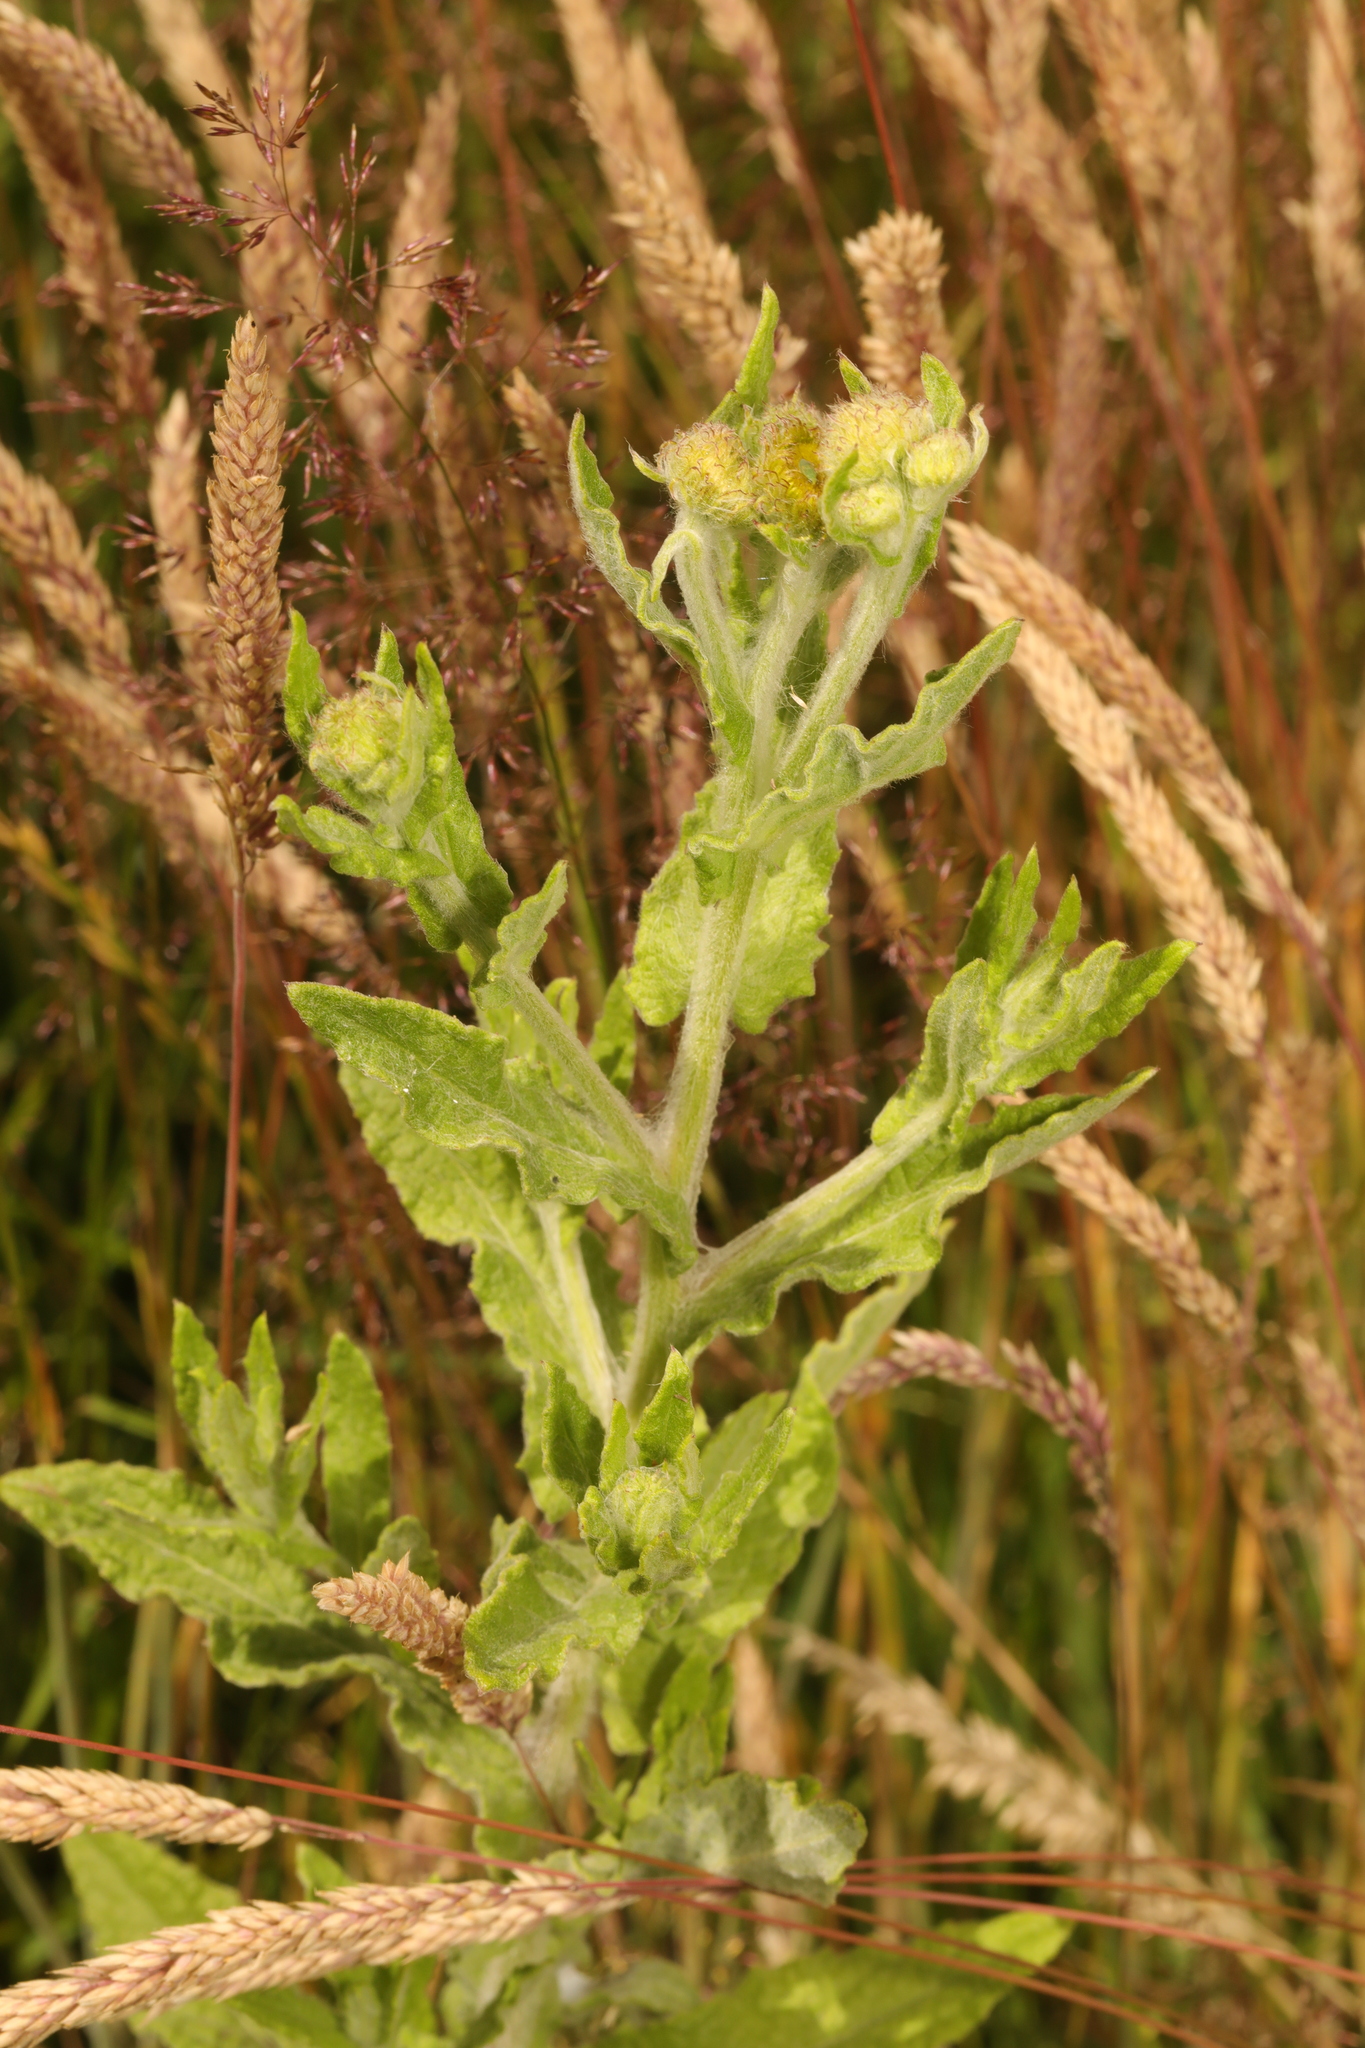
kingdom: Plantae
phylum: Tracheophyta
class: Magnoliopsida
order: Asterales
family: Asteraceae
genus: Pulicaria
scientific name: Pulicaria dysenterica
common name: Common fleabane
